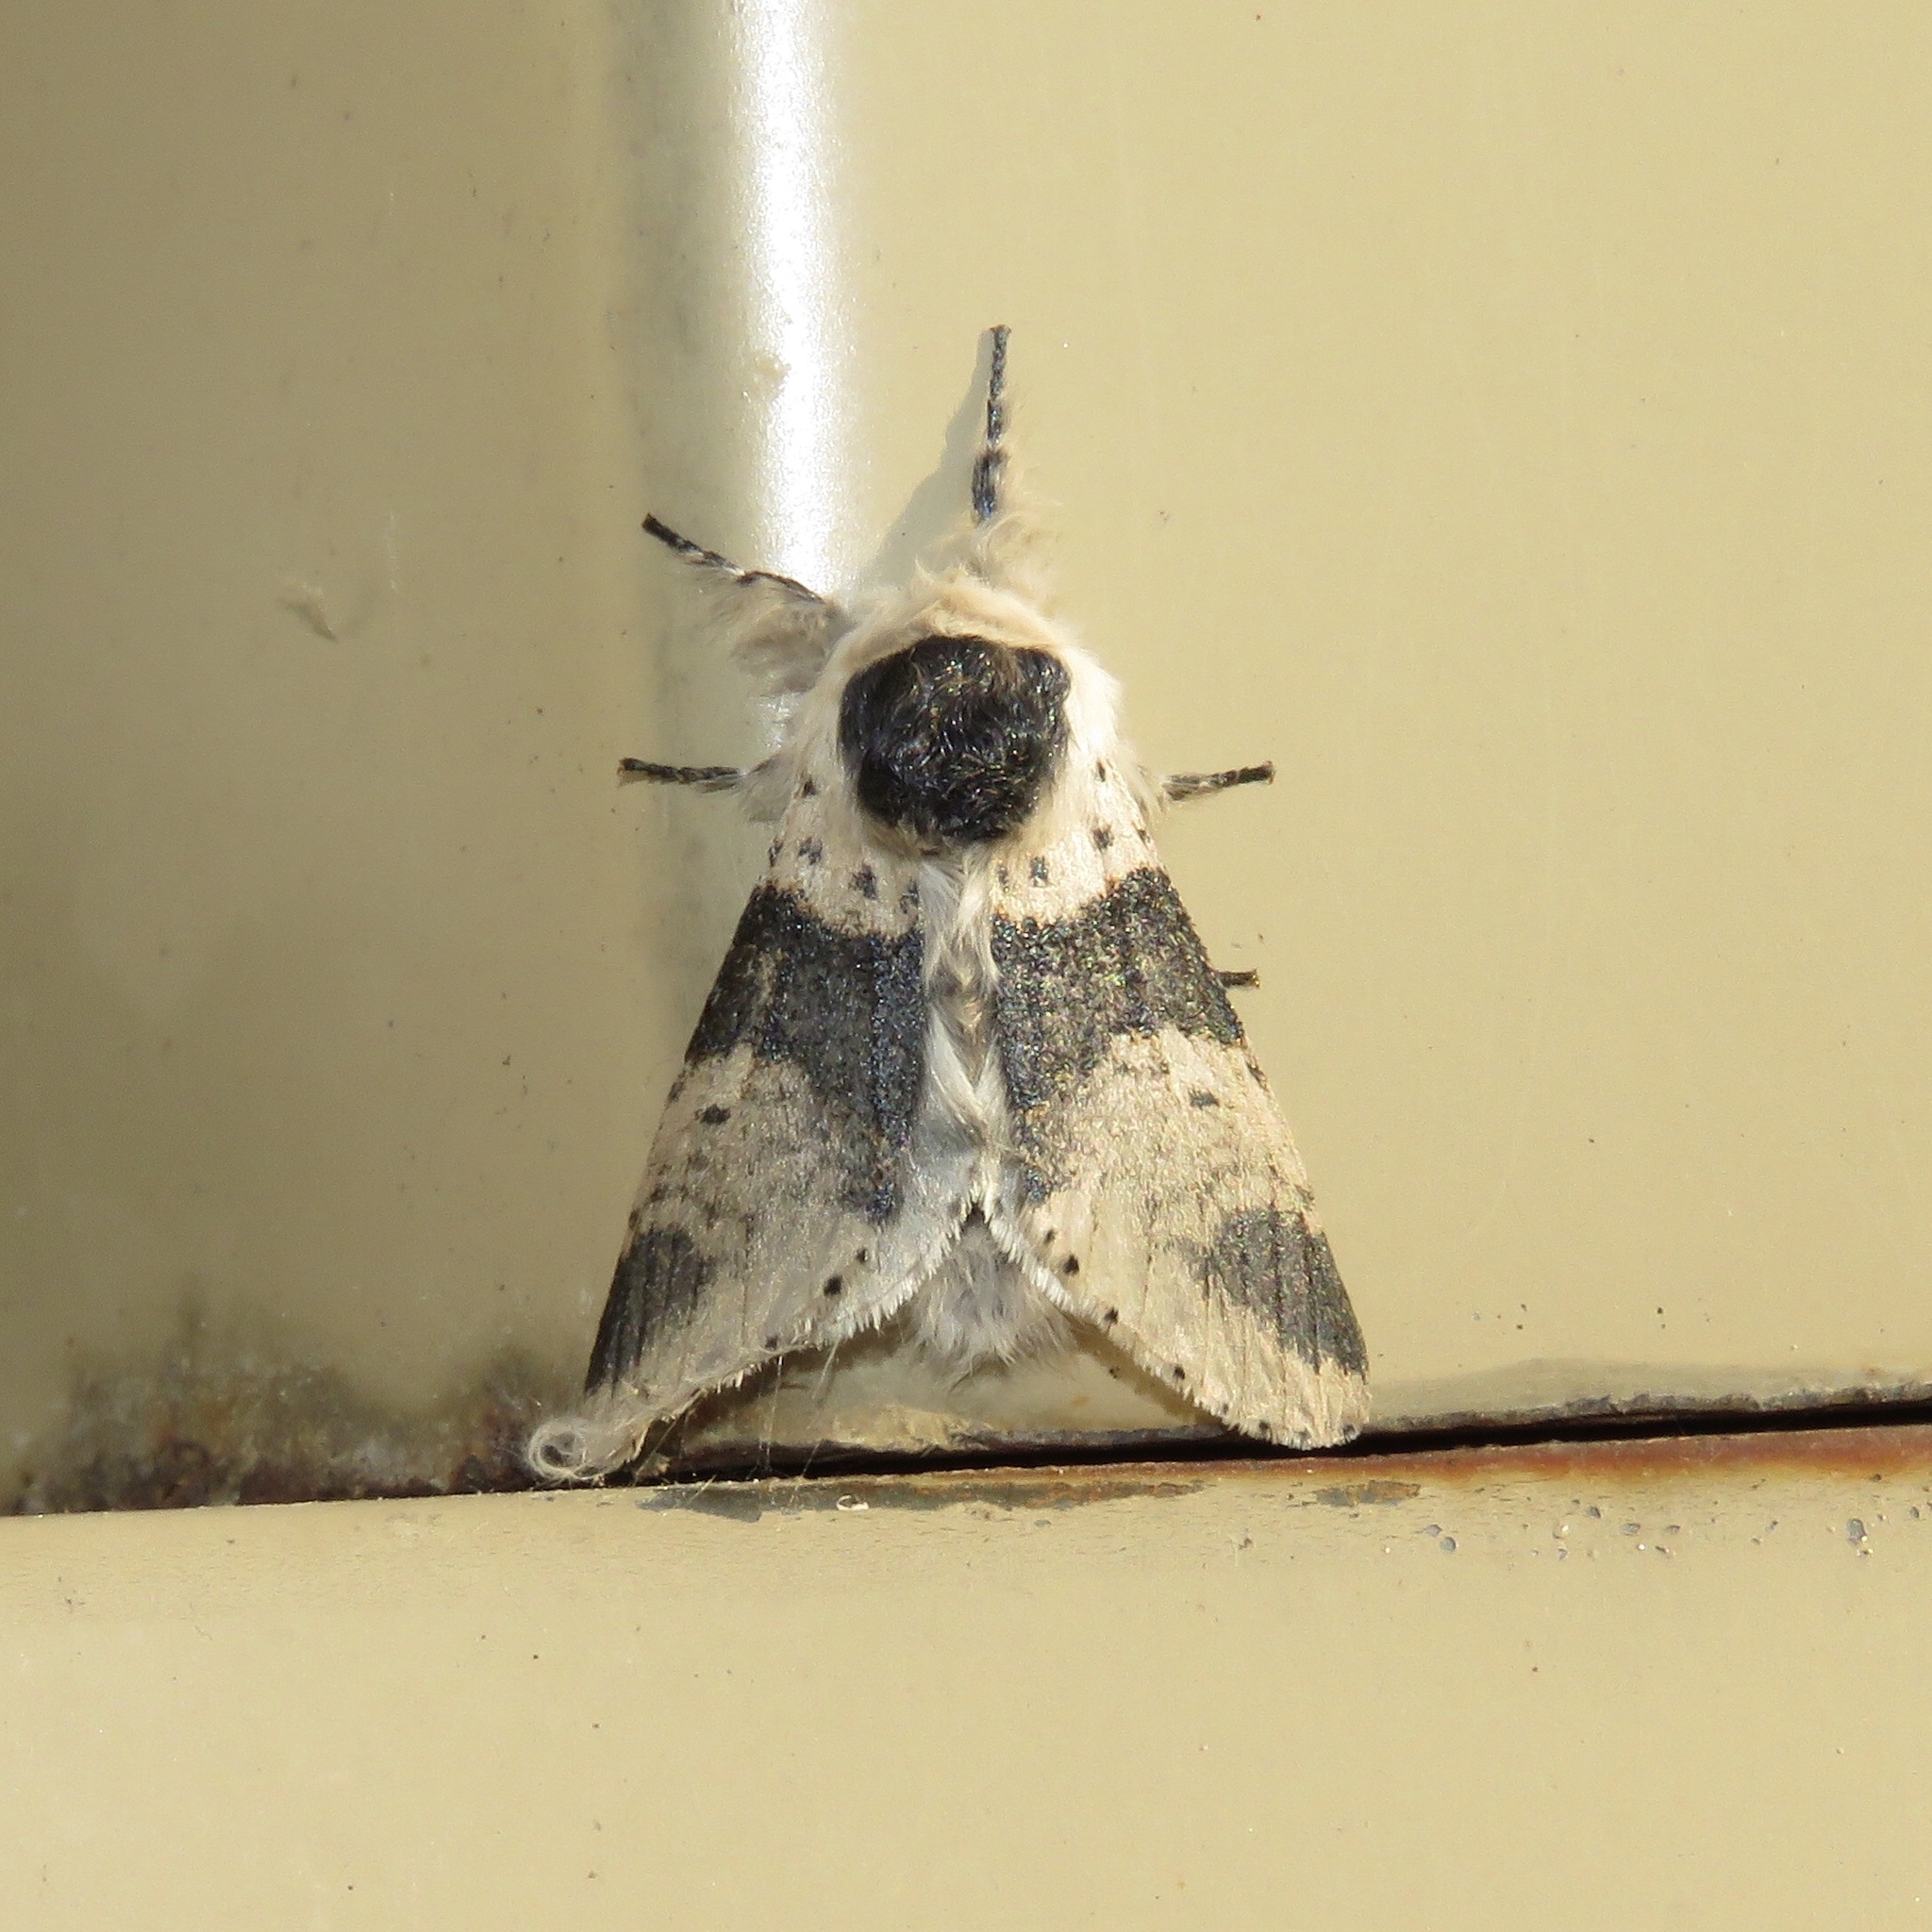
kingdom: Animalia
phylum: Arthropoda
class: Insecta
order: Lepidoptera
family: Notodontidae
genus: Furcula
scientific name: Furcula modesta
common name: Modest furcula moth
